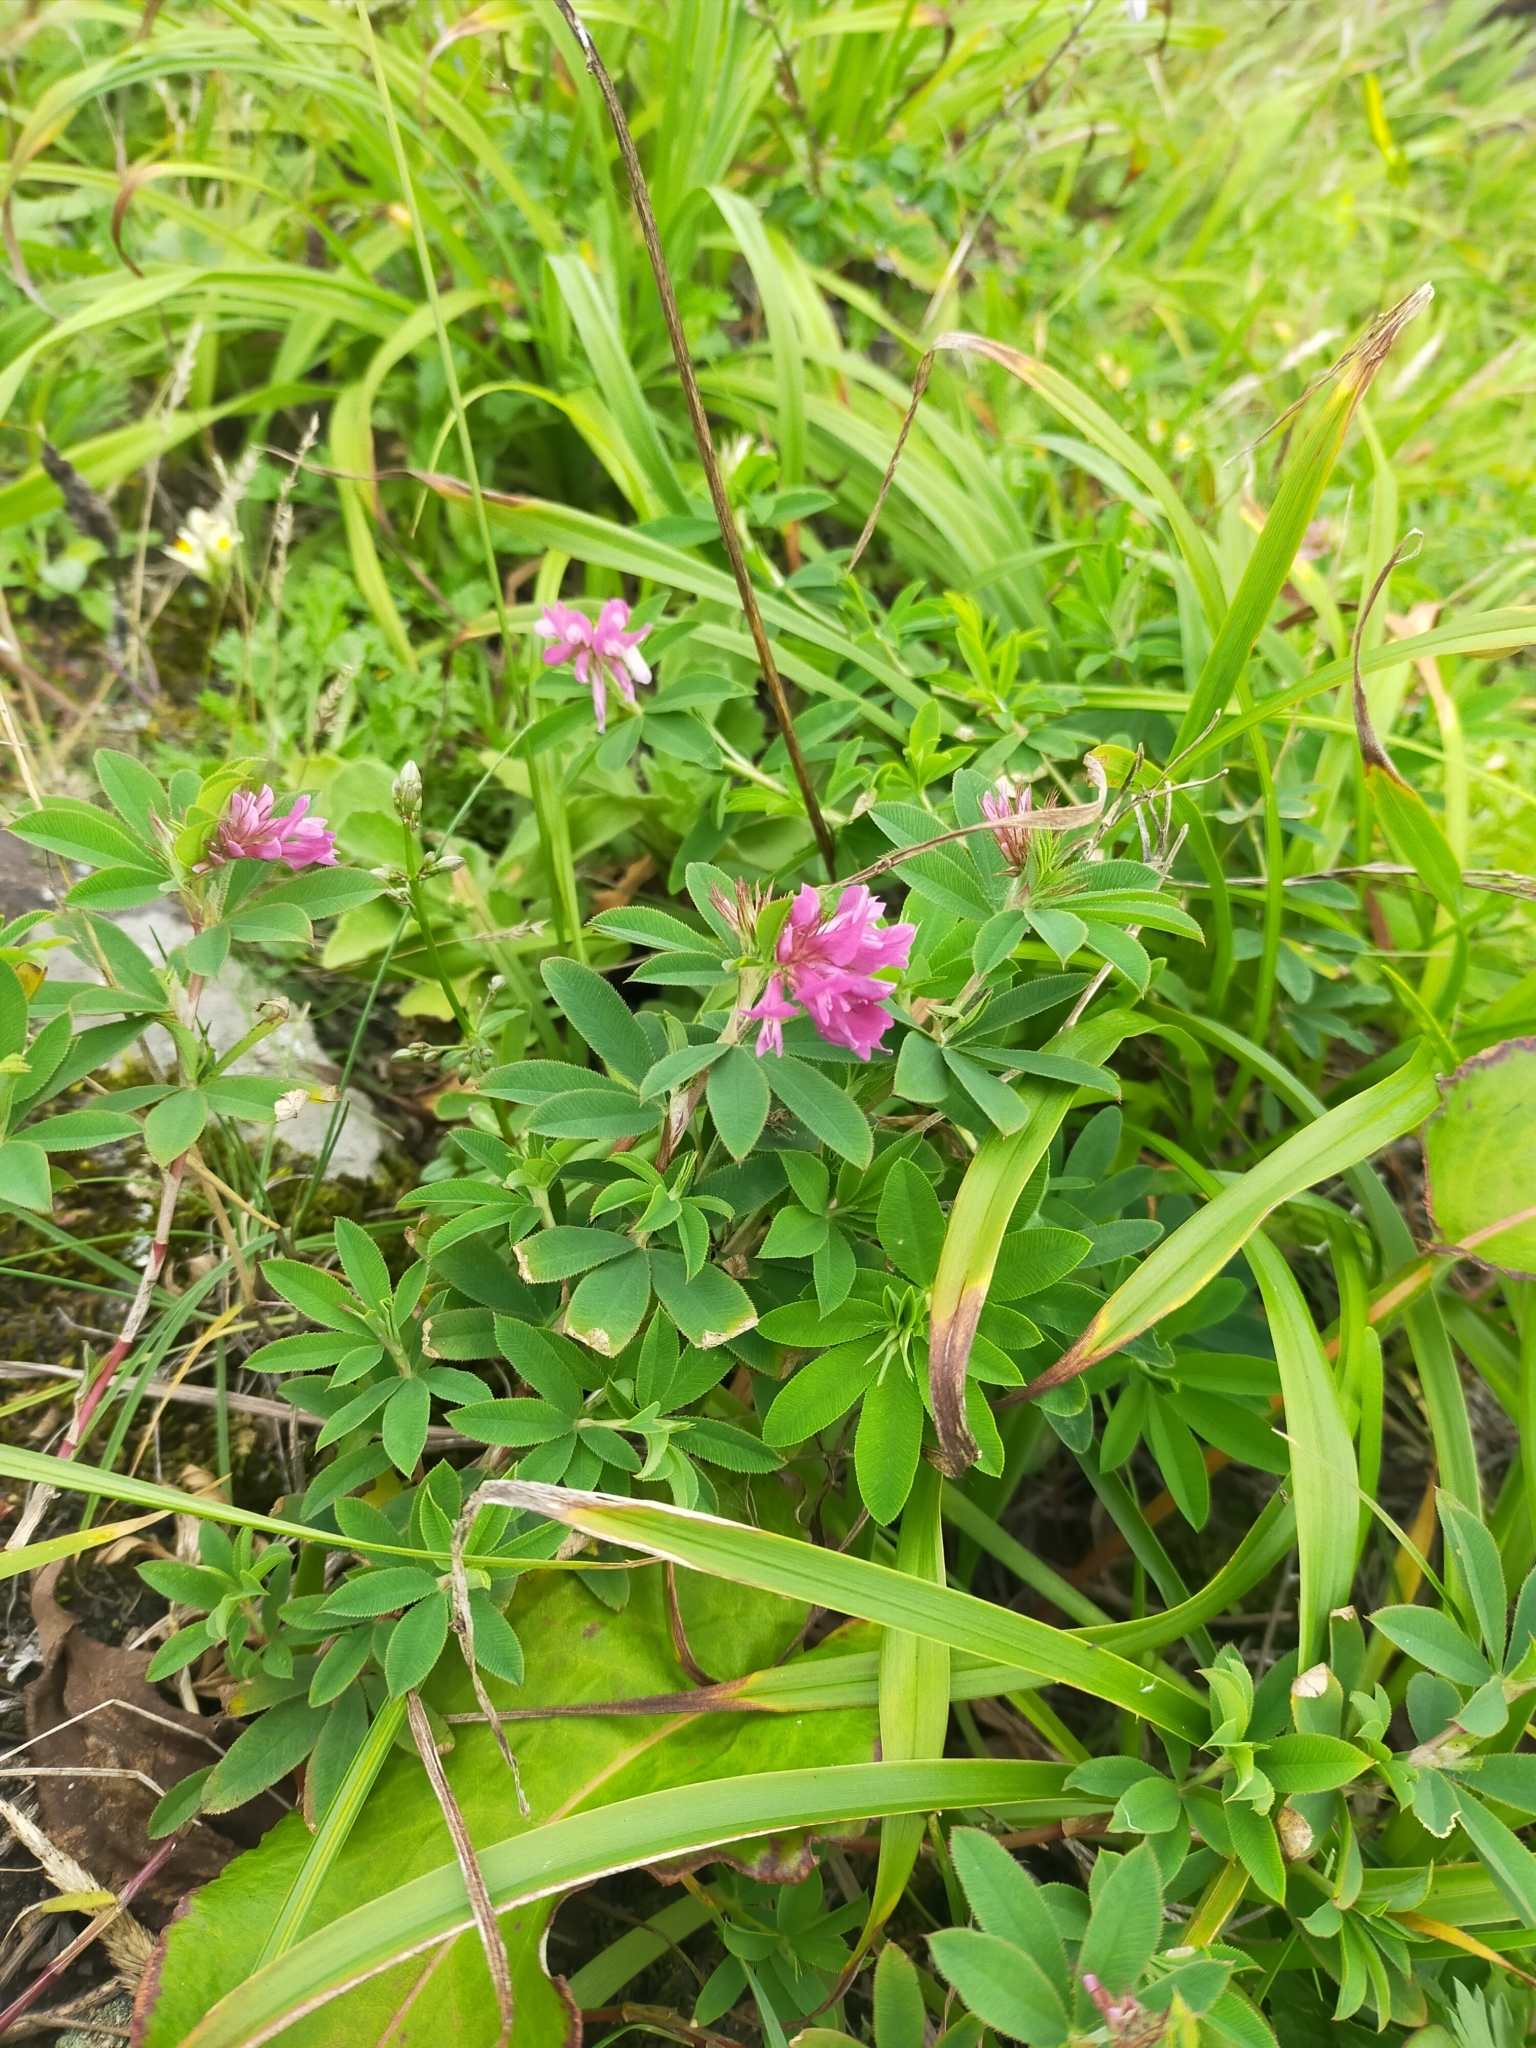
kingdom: Plantae
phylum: Tracheophyta
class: Magnoliopsida
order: Fabales
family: Fabaceae
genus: Trifolium
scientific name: Trifolium lupinaster
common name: Lupine clover
